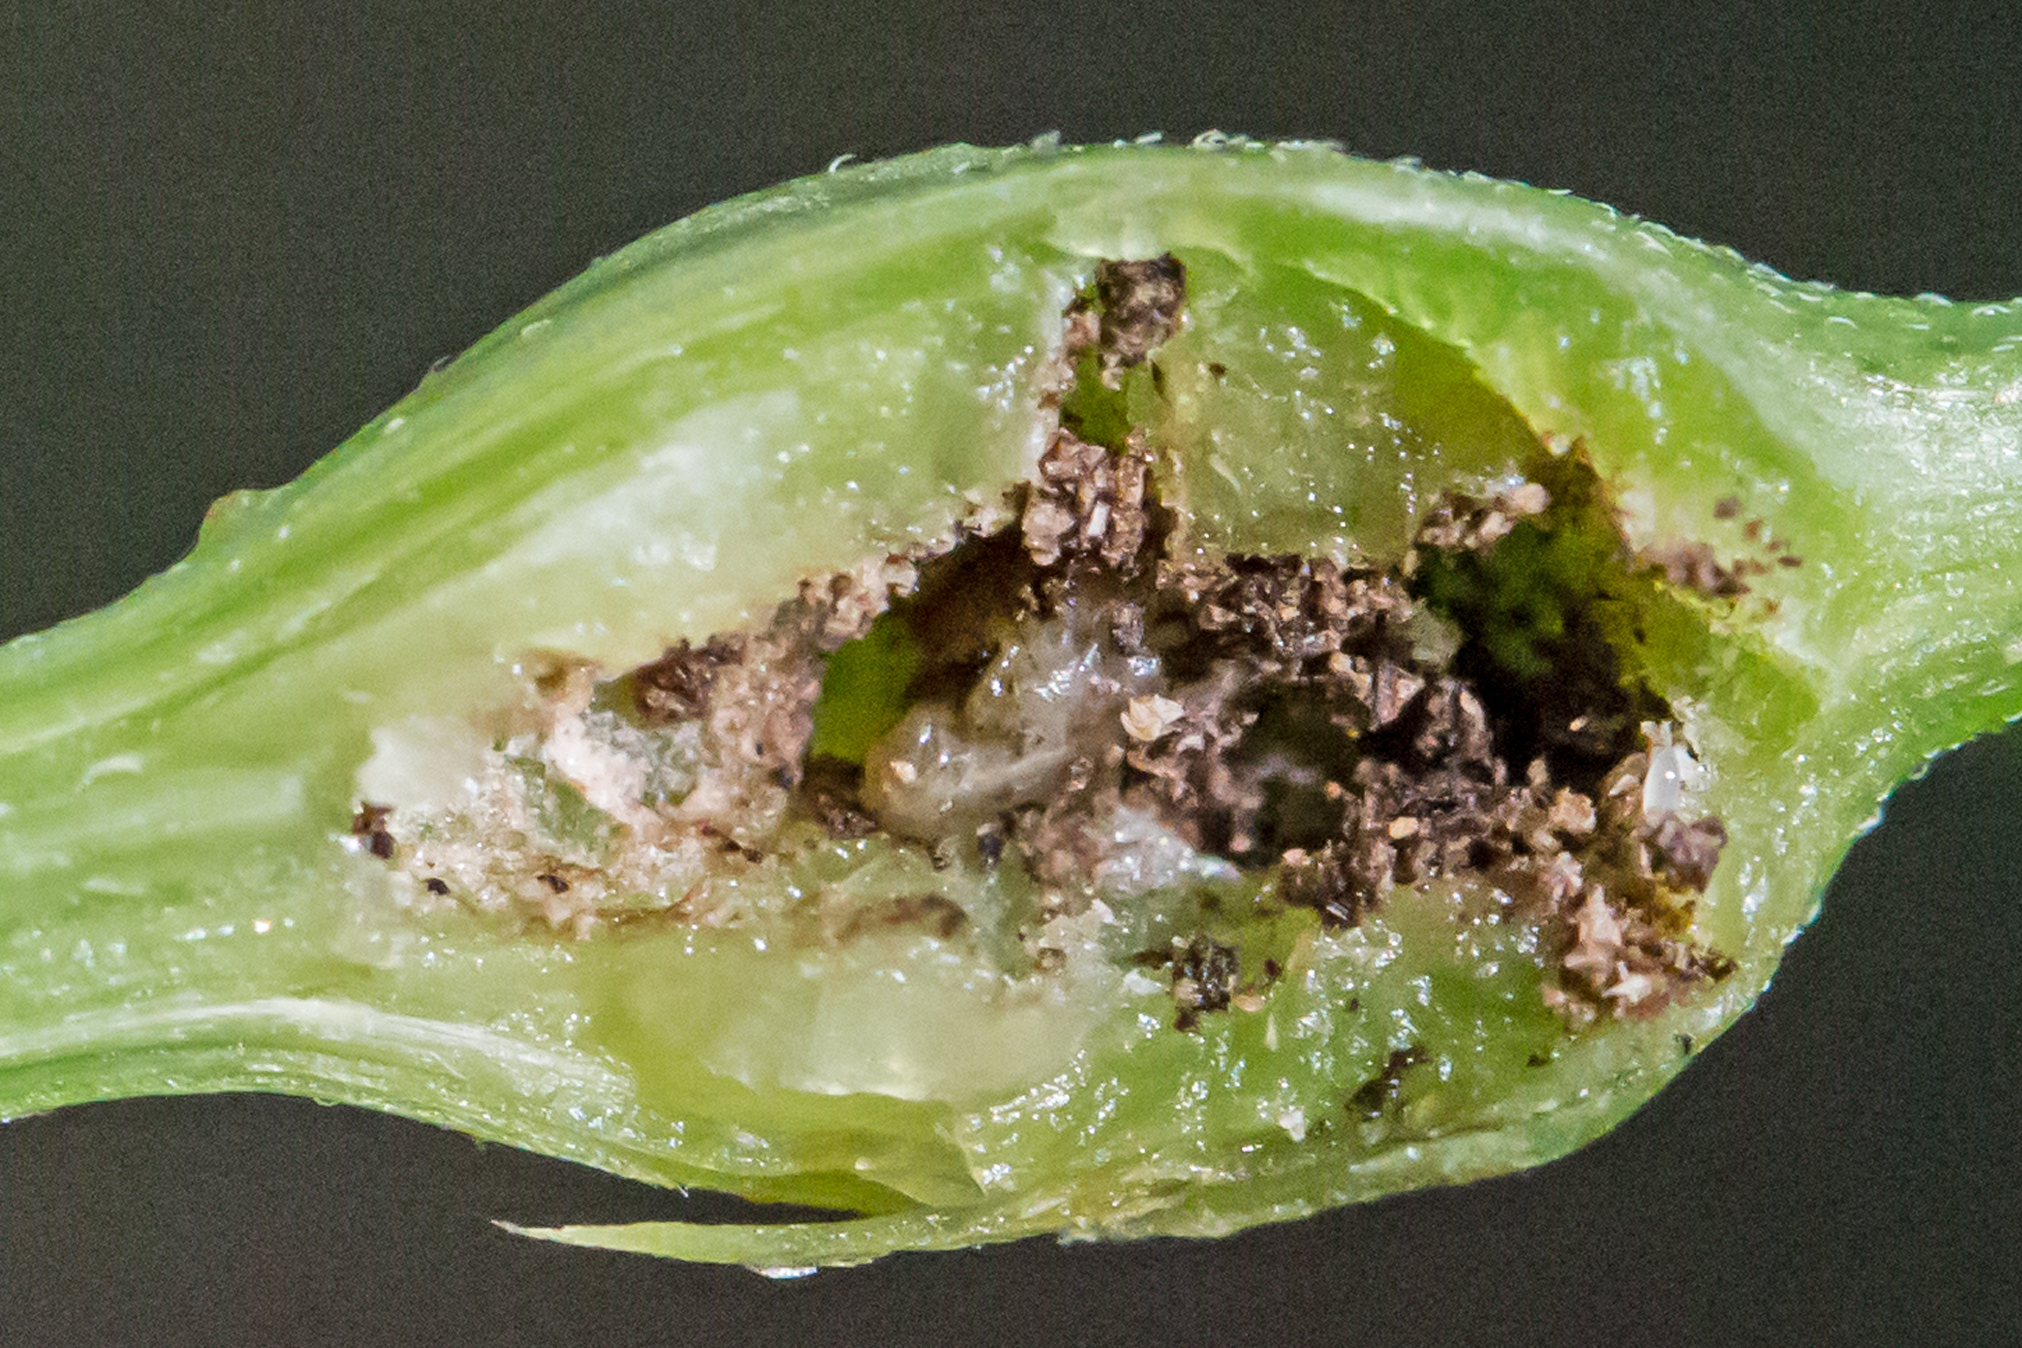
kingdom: Animalia
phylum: Arthropoda
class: Insecta
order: Diptera
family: Cecidomyiidae
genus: Neolasioptera
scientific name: Neolasioptera eupatorii
